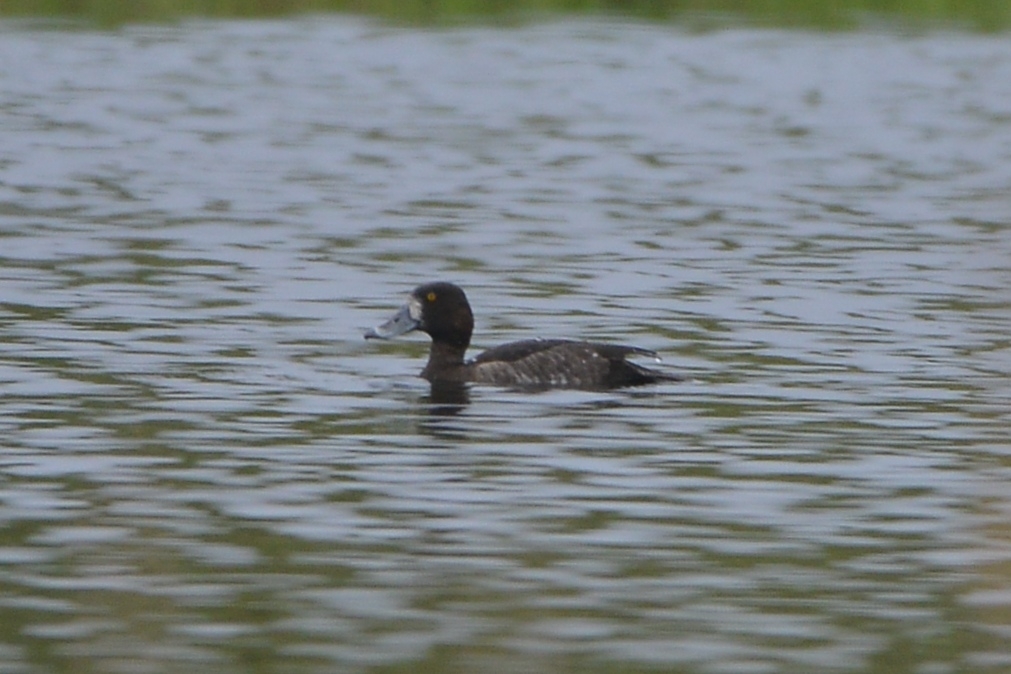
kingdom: Animalia
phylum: Chordata
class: Aves
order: Anseriformes
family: Anatidae
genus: Aythya
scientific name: Aythya marila
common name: Greater scaup
